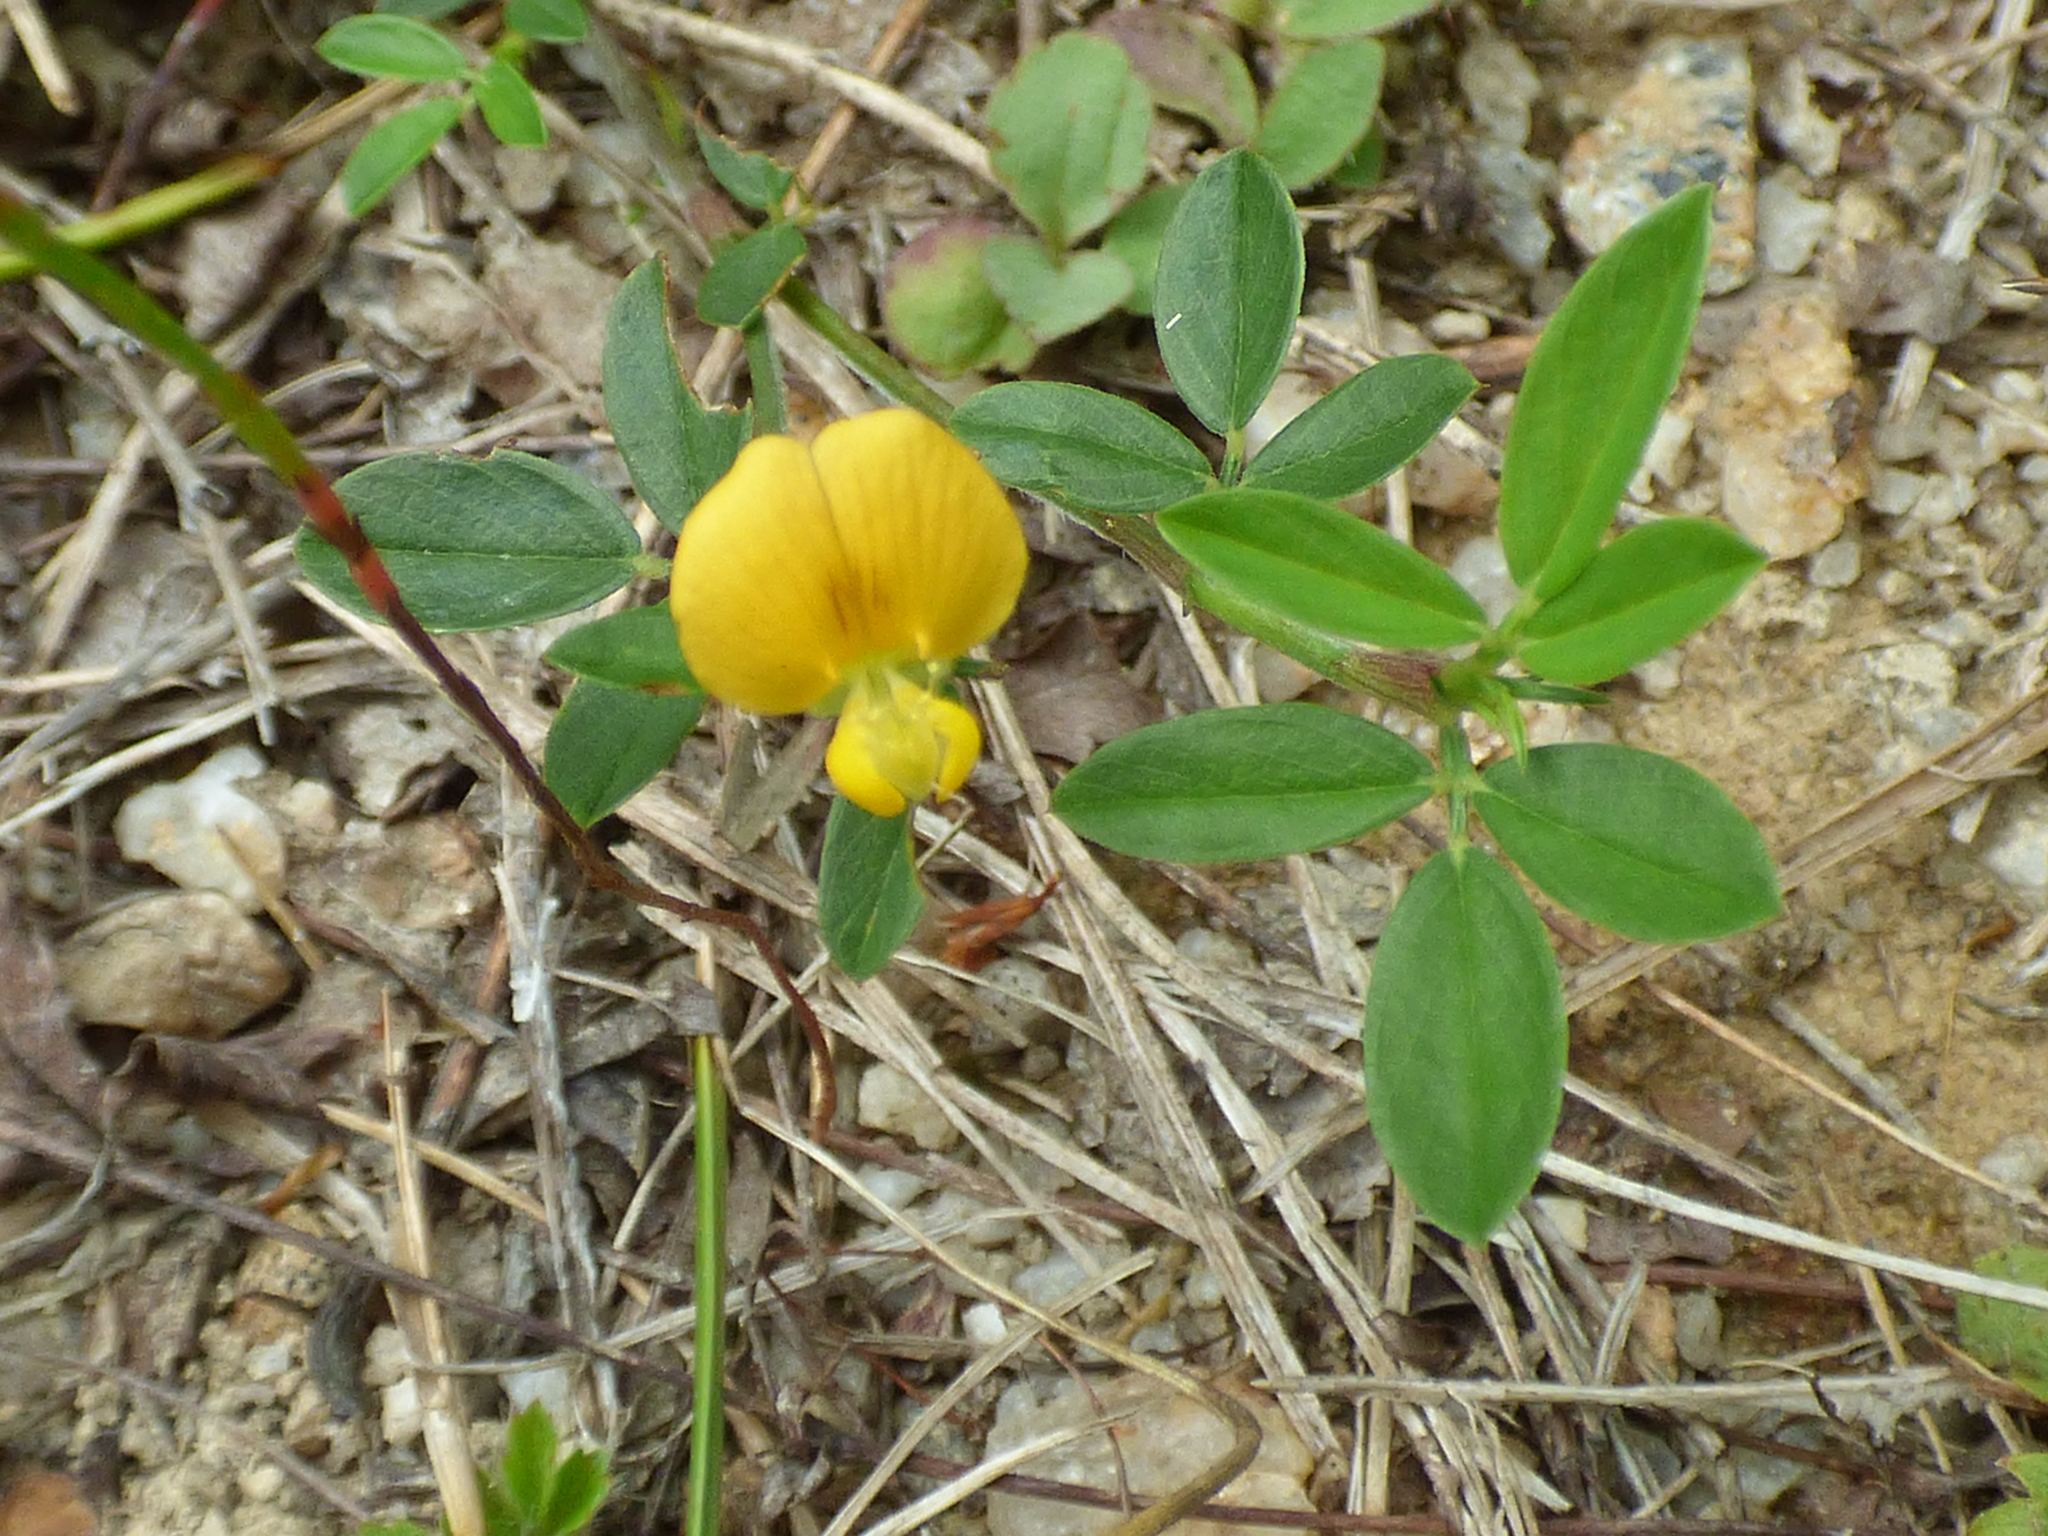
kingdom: Plantae
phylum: Tracheophyta
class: Magnoliopsida
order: Fabales
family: Fabaceae
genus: Stylosanthes
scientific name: Stylosanthes biflora
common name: Two-flower pencil-flower
